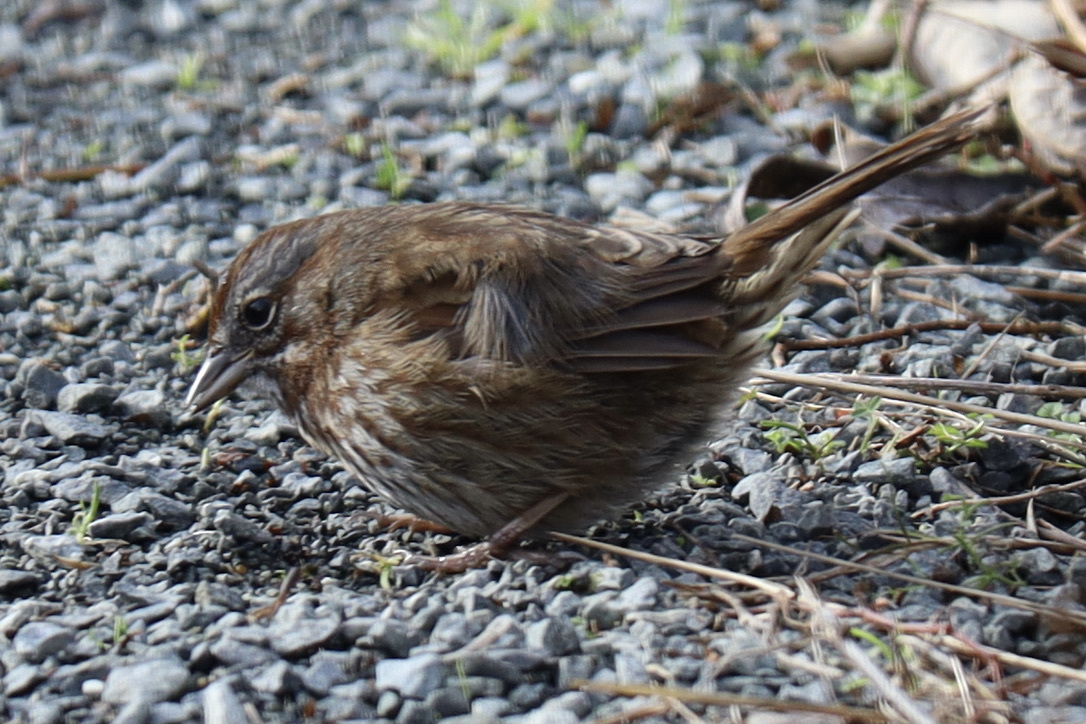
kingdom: Animalia
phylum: Chordata
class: Aves
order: Passeriformes
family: Passerellidae
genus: Melospiza
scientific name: Melospiza melodia
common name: Song sparrow
